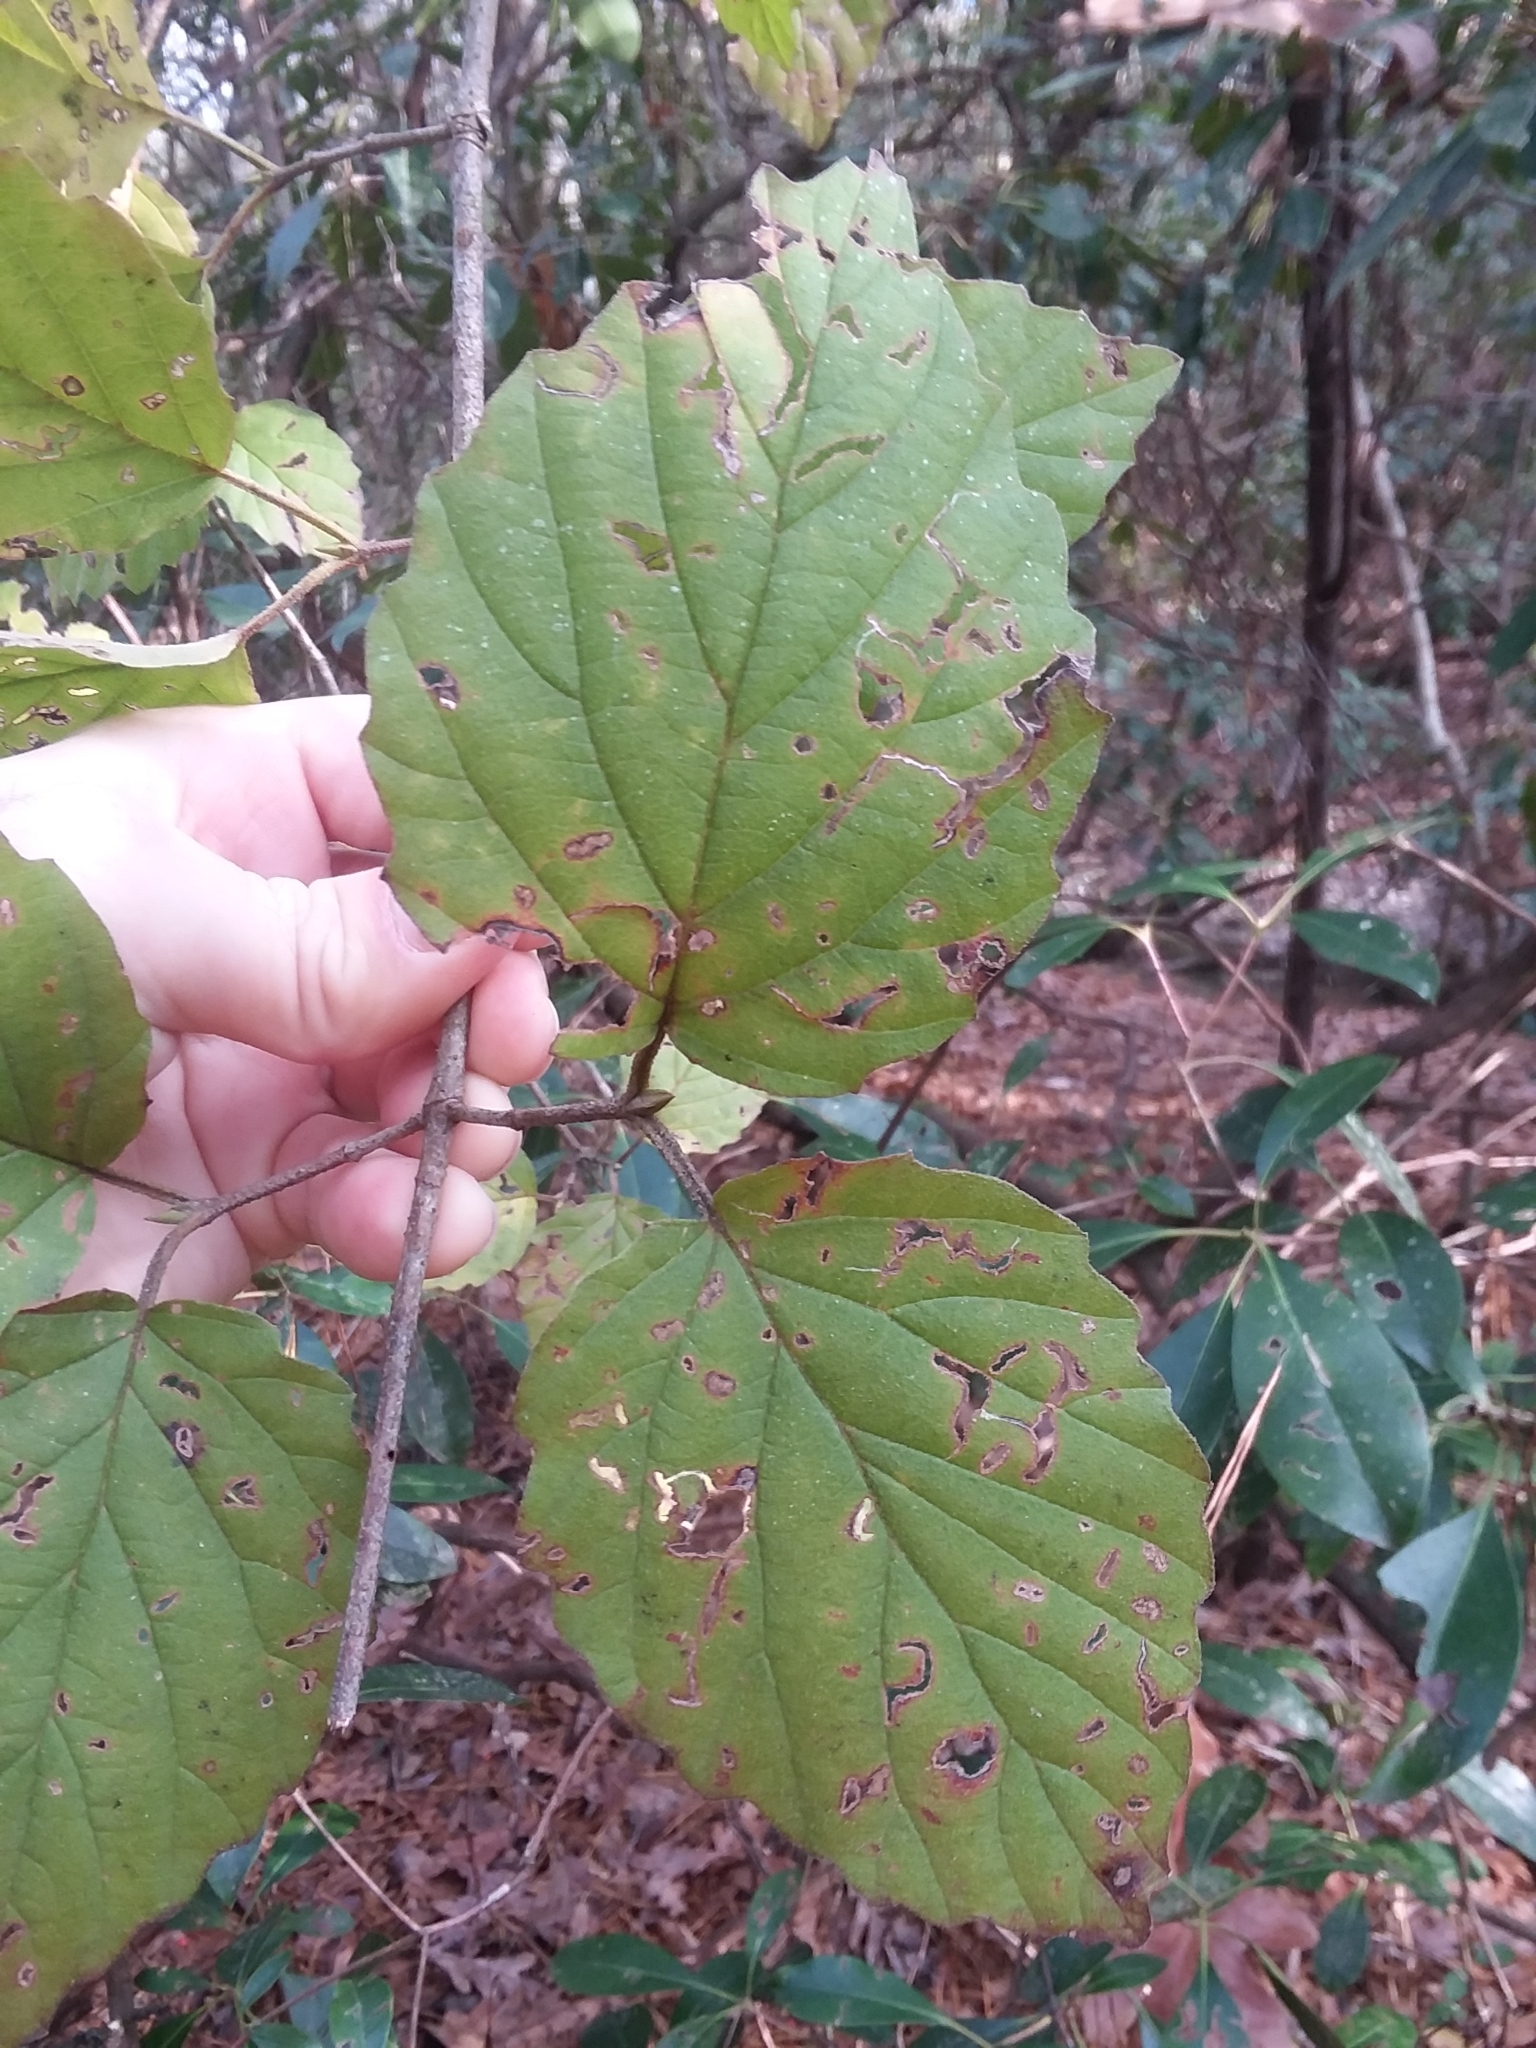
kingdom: Plantae
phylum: Tracheophyta
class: Magnoliopsida
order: Dipsacales
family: Viburnaceae
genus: Viburnum
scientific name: Viburnum scabrellum
